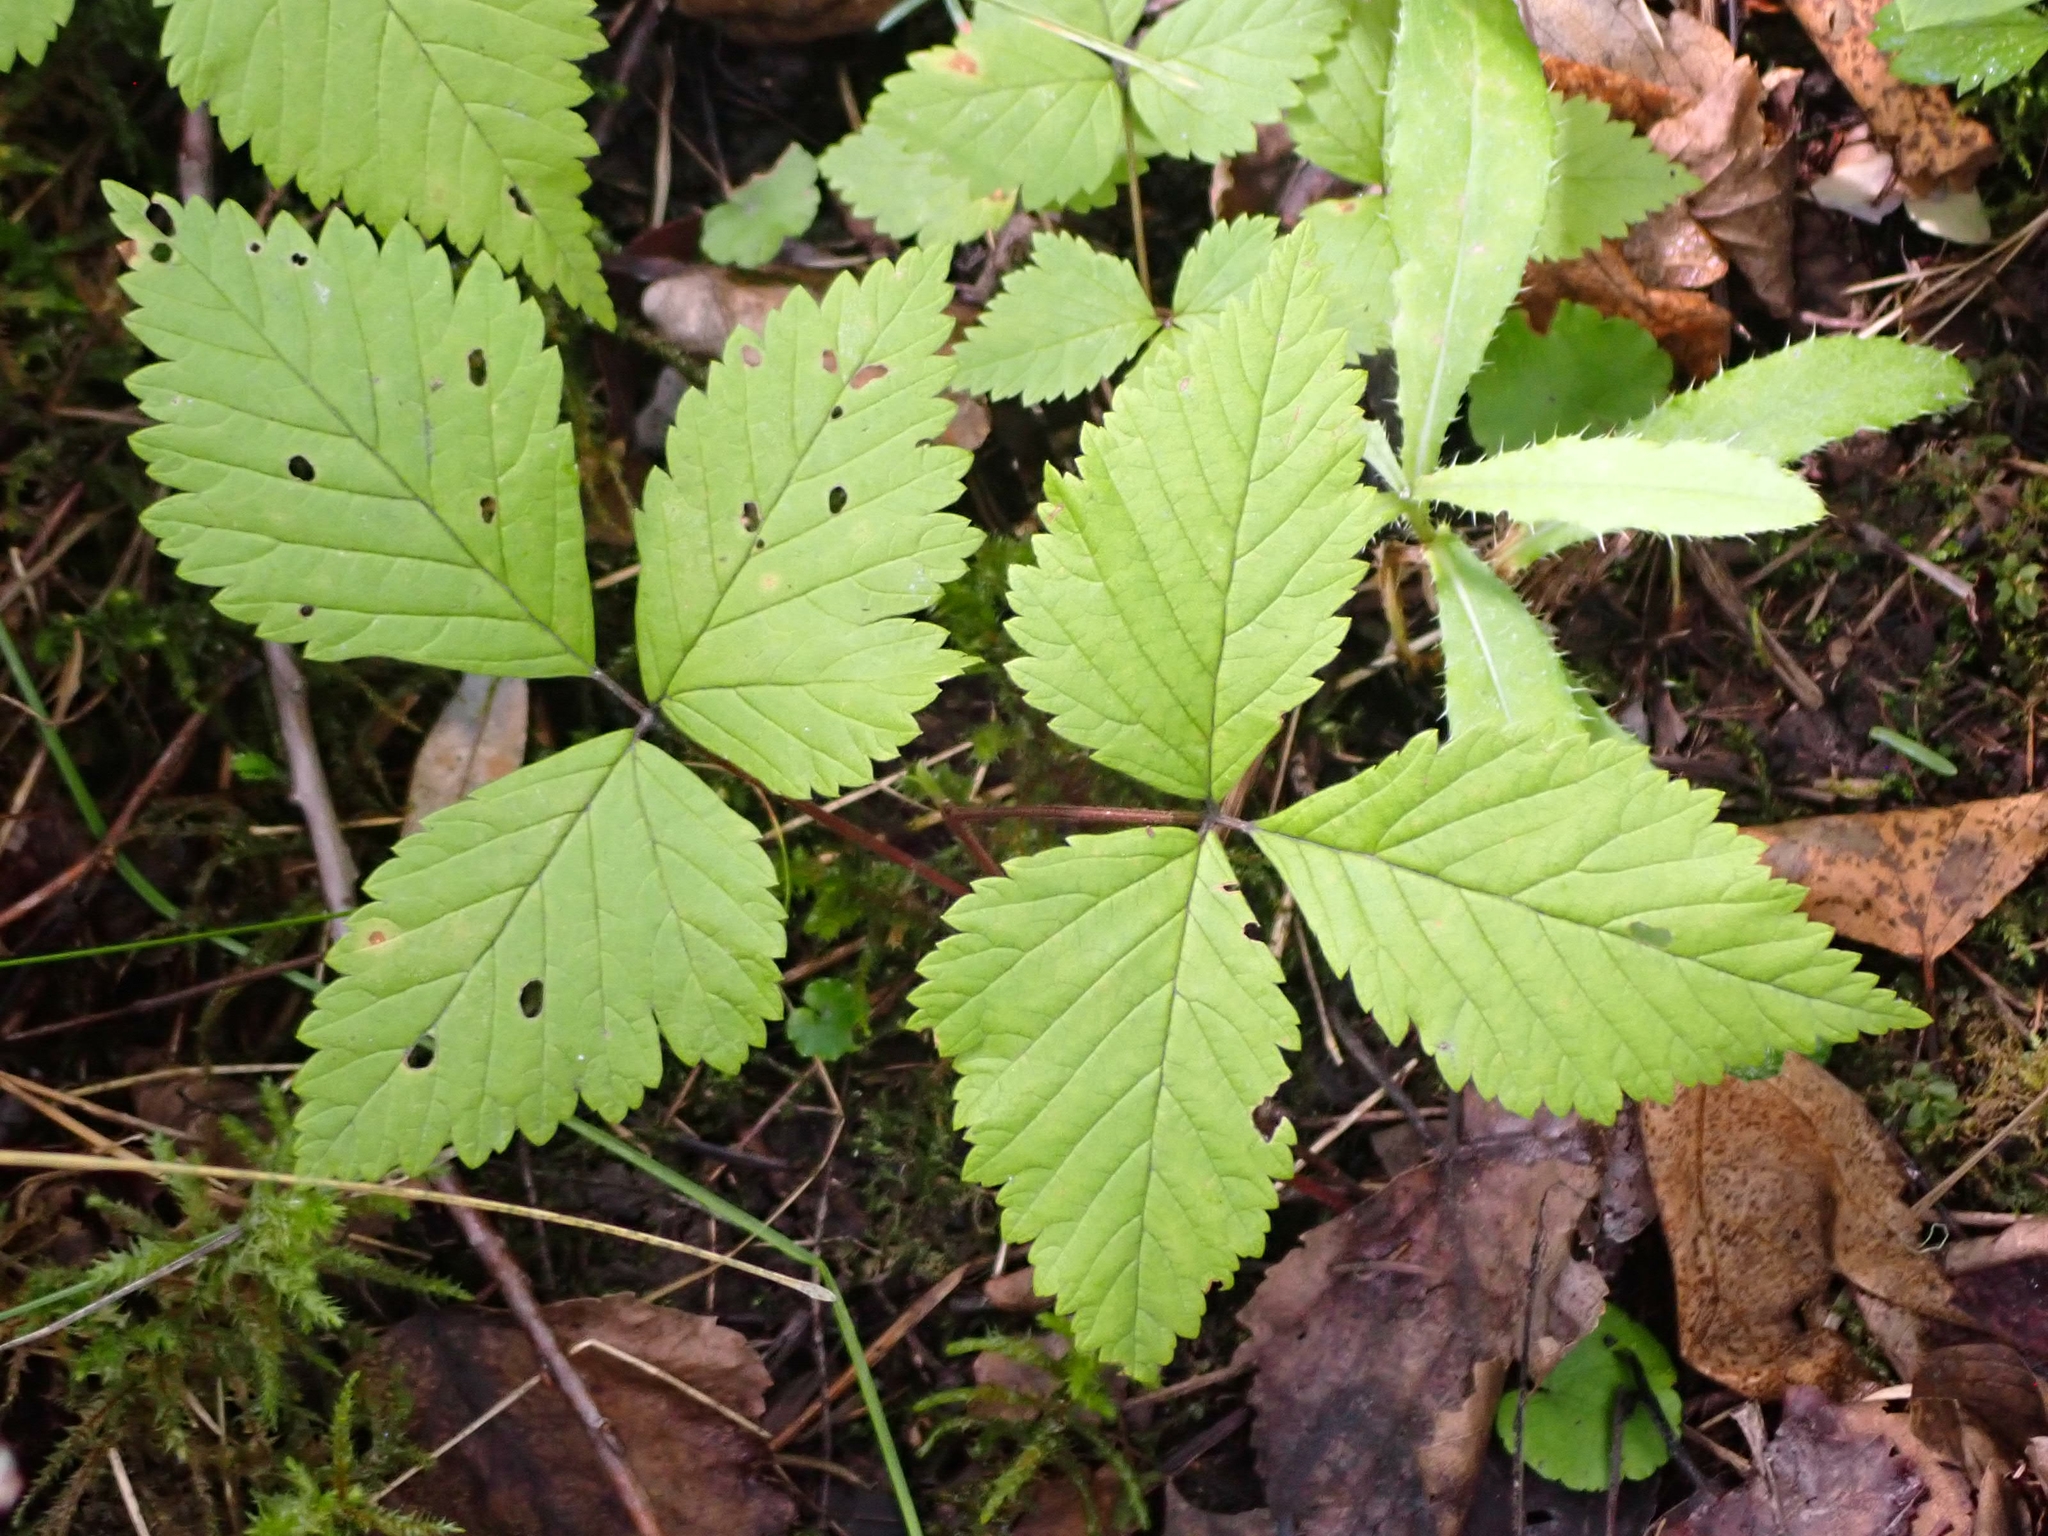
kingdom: Plantae
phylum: Tracheophyta
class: Magnoliopsida
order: Rosales
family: Rosaceae
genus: Rubus
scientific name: Rubus pubescens
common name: Dwarf raspberry
